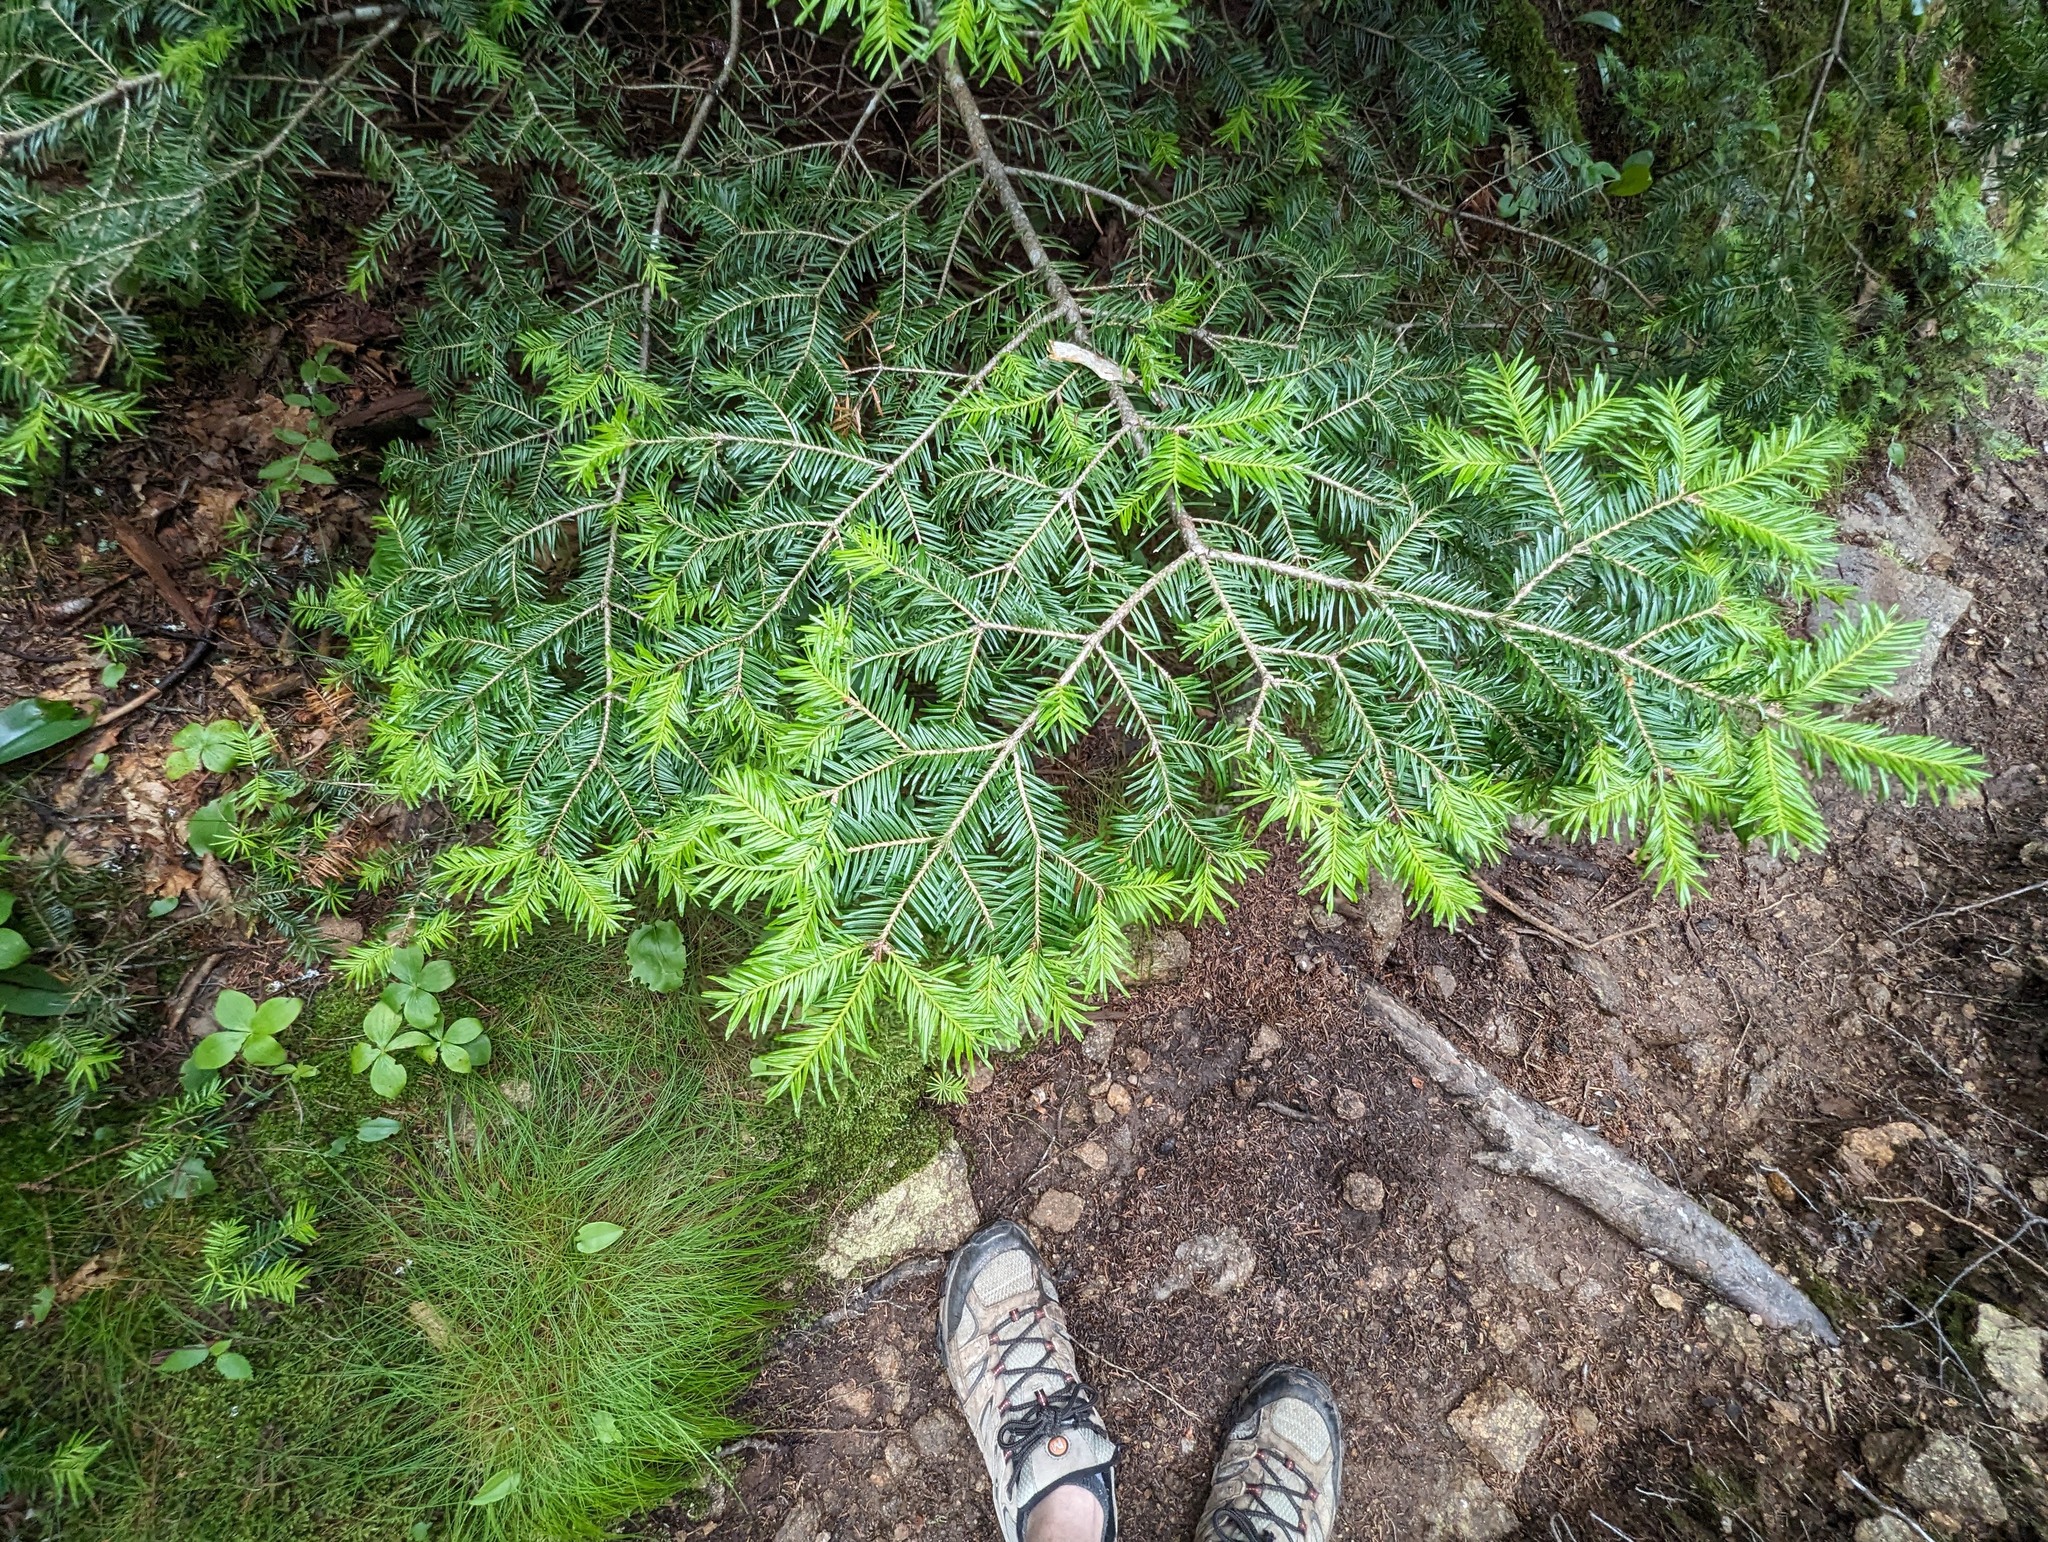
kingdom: Plantae
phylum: Tracheophyta
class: Pinopsida
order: Pinales
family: Pinaceae
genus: Abies
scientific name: Abies balsamea
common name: Balsam fir
